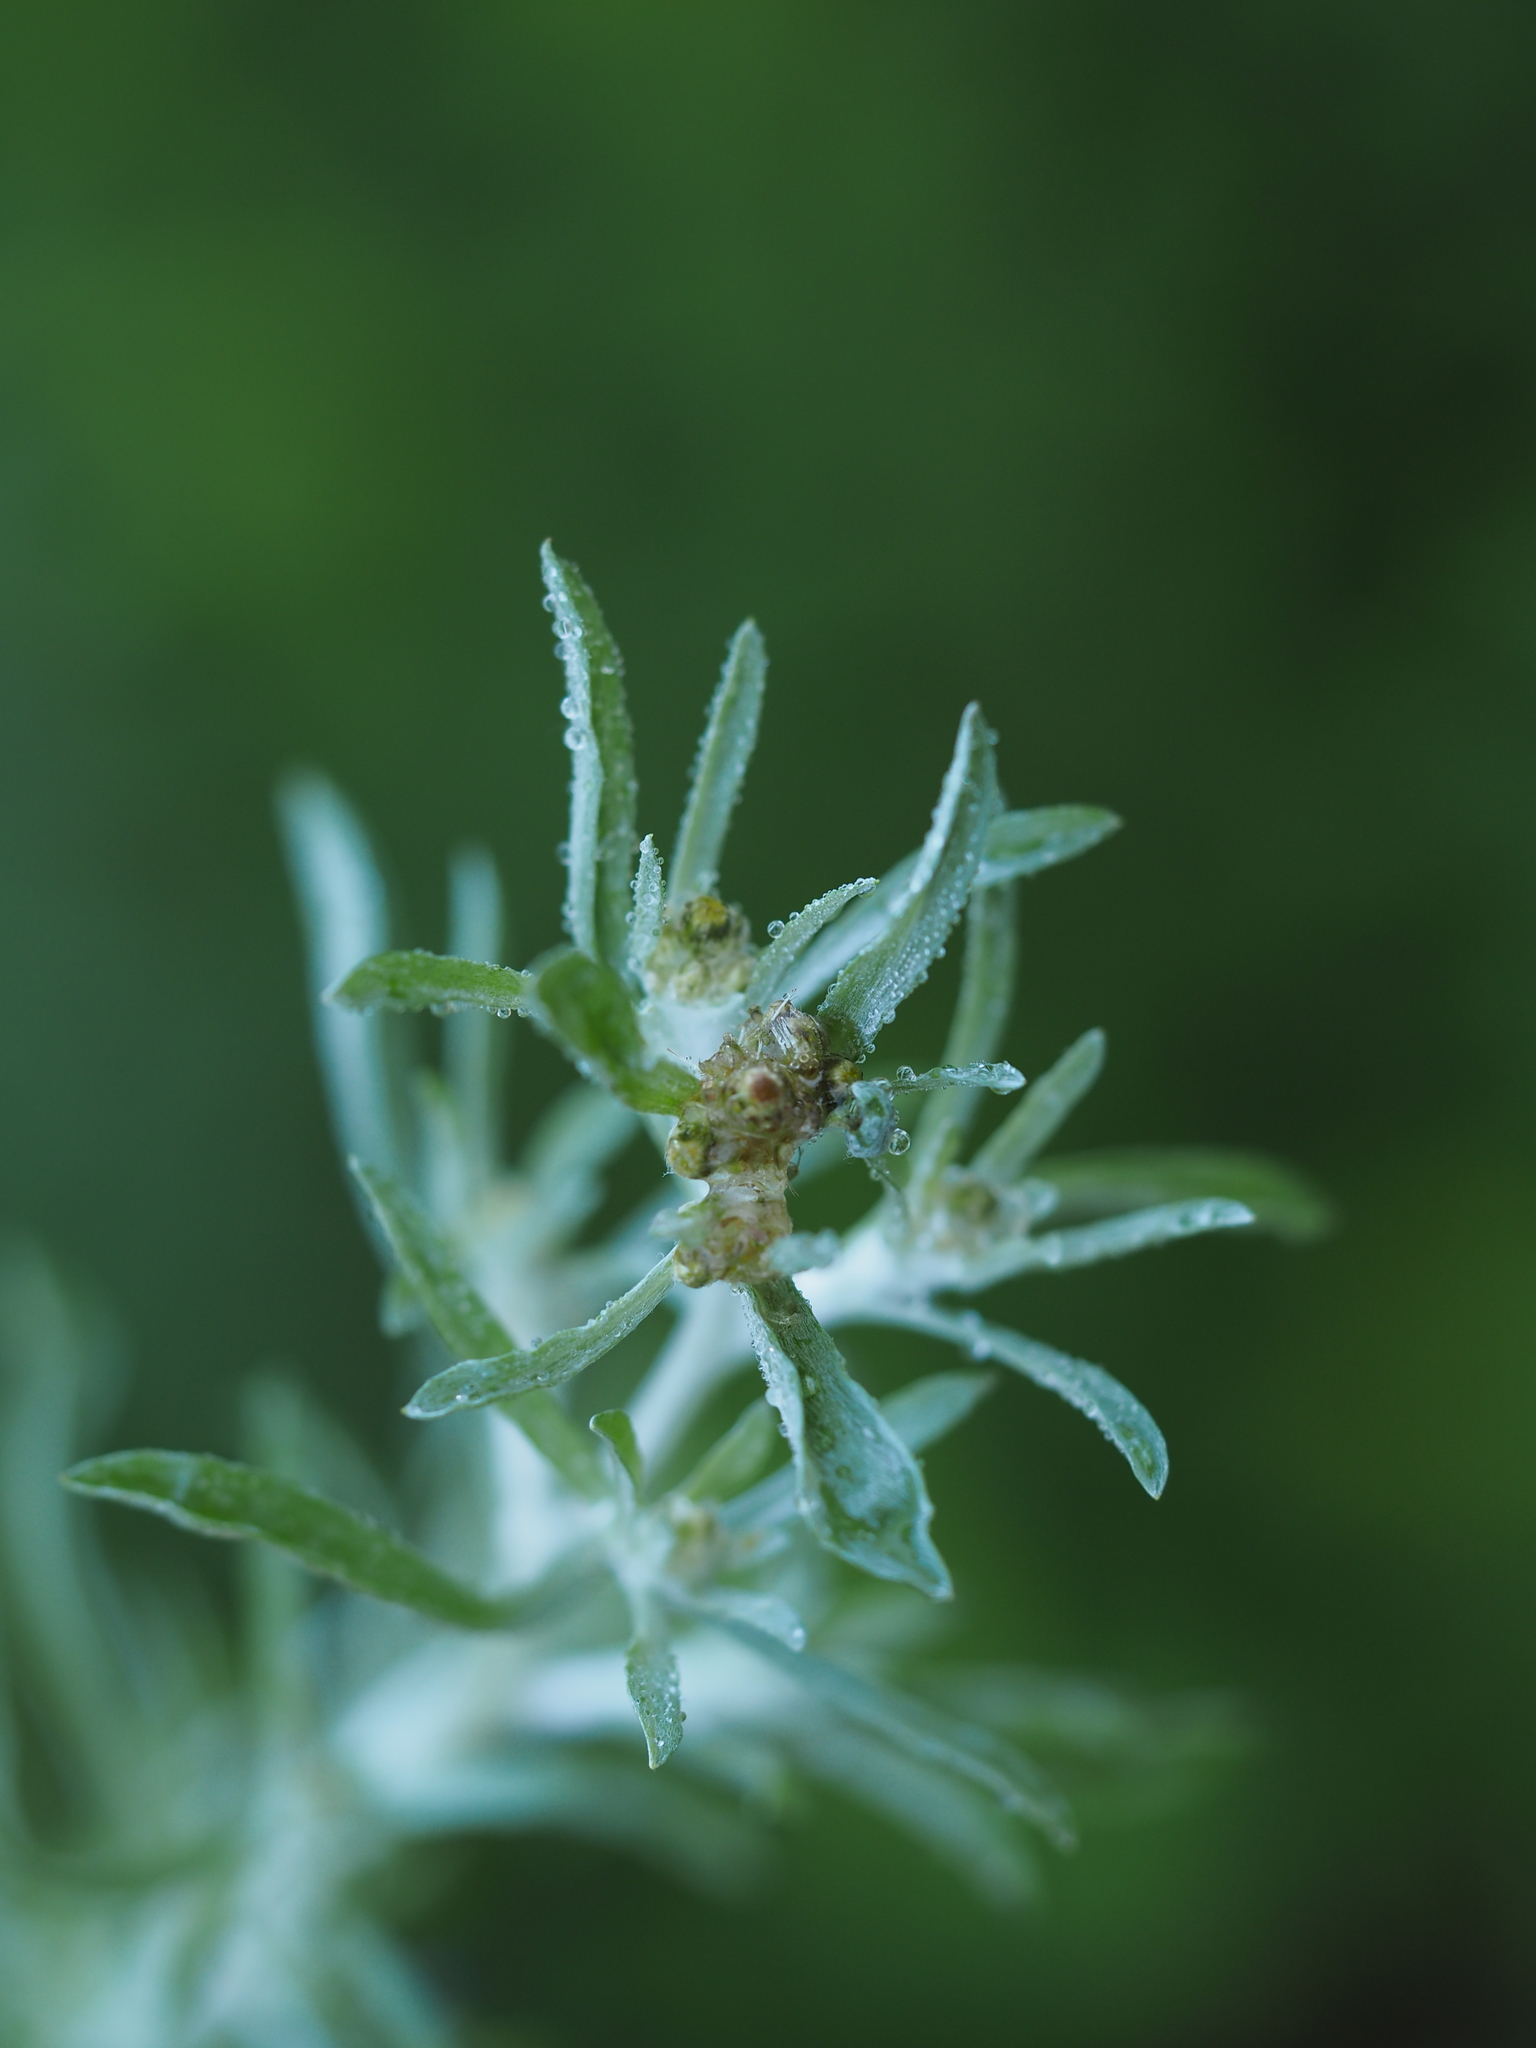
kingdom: Plantae
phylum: Tracheophyta
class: Magnoliopsida
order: Asterales
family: Asteraceae
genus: Gnaphalium
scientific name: Gnaphalium uliginosum
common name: Marsh cudweed
